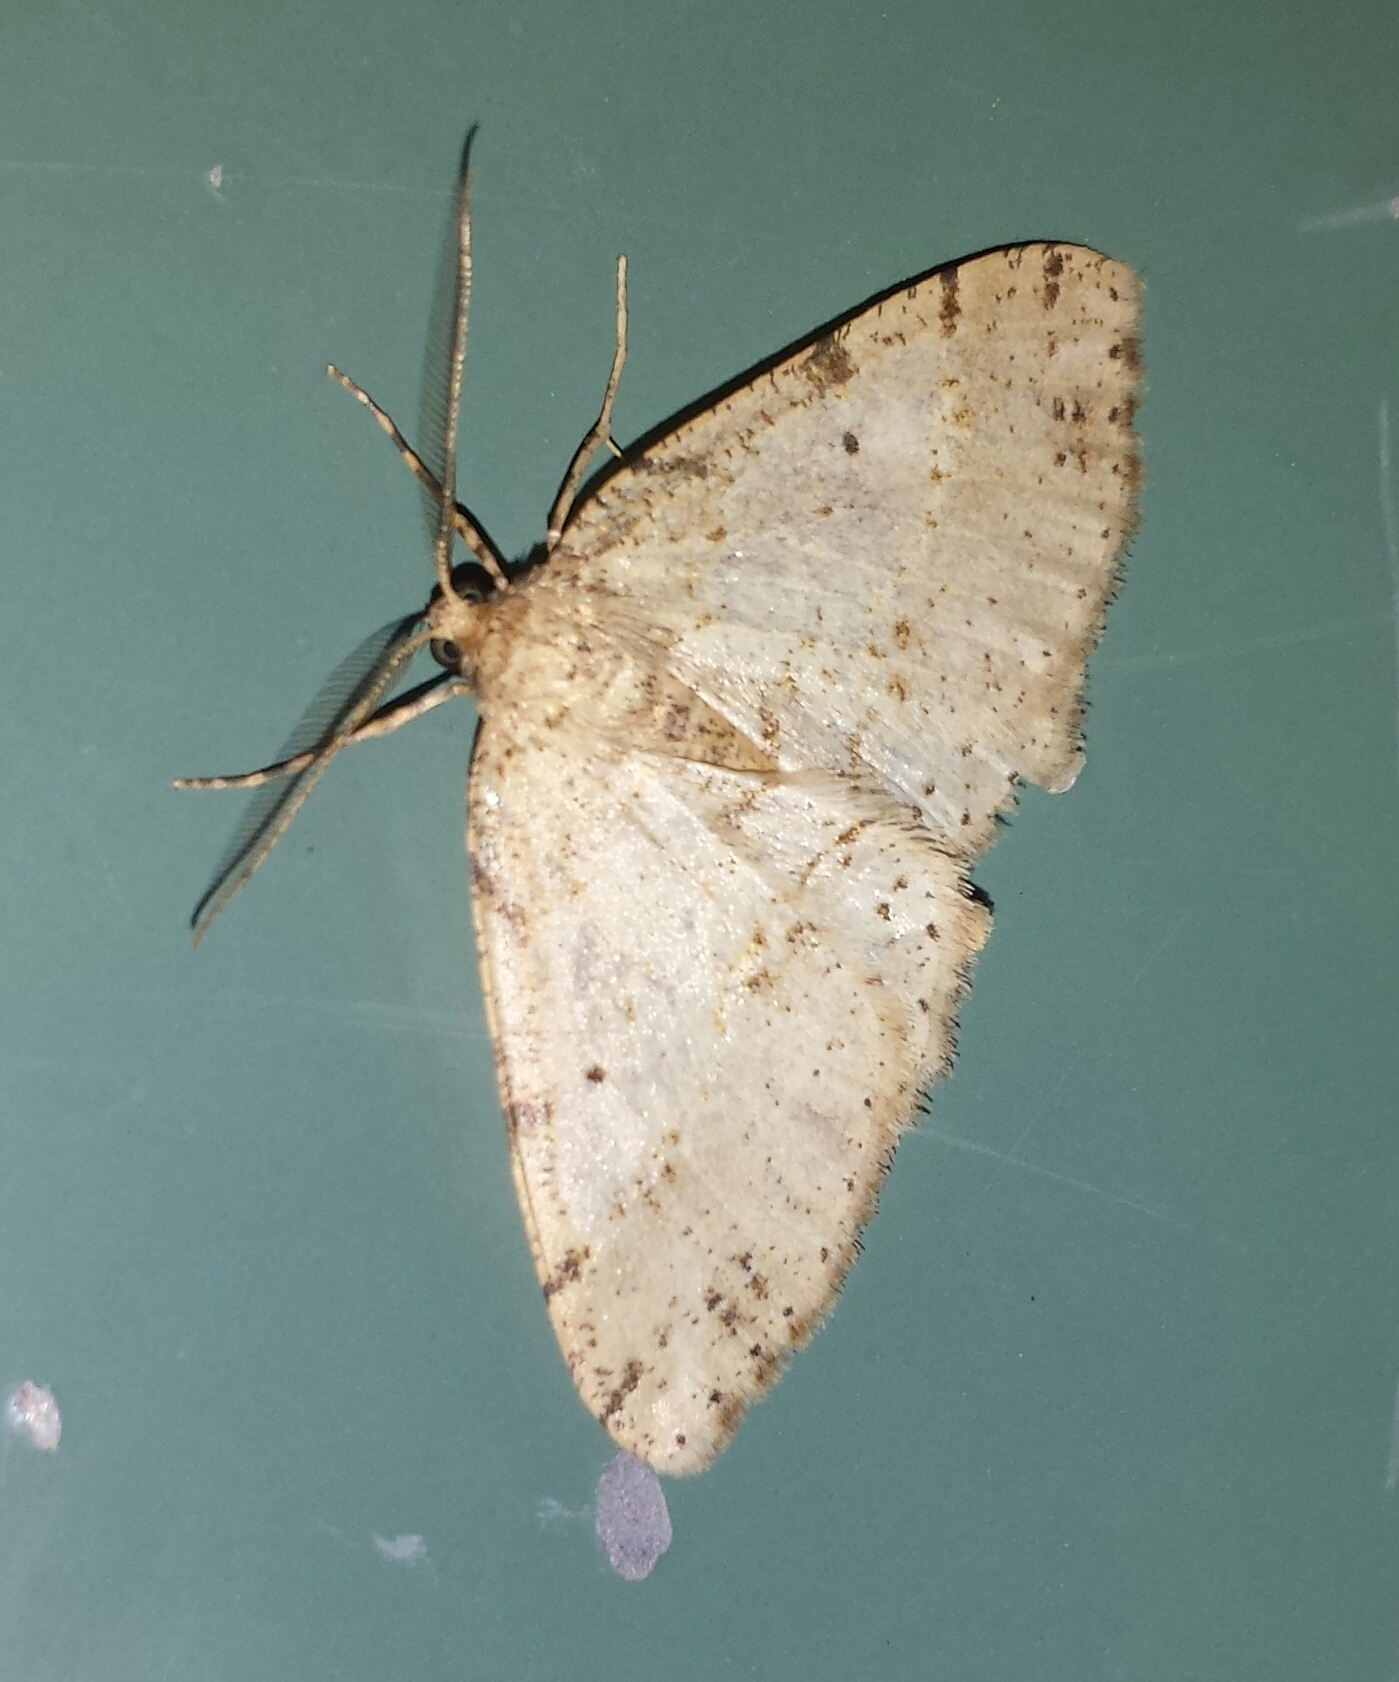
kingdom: Animalia
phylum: Arthropoda
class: Insecta
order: Lepidoptera
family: Geometridae
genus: Melanolophia
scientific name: Melanolophia signataria
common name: Signate melanolophia
